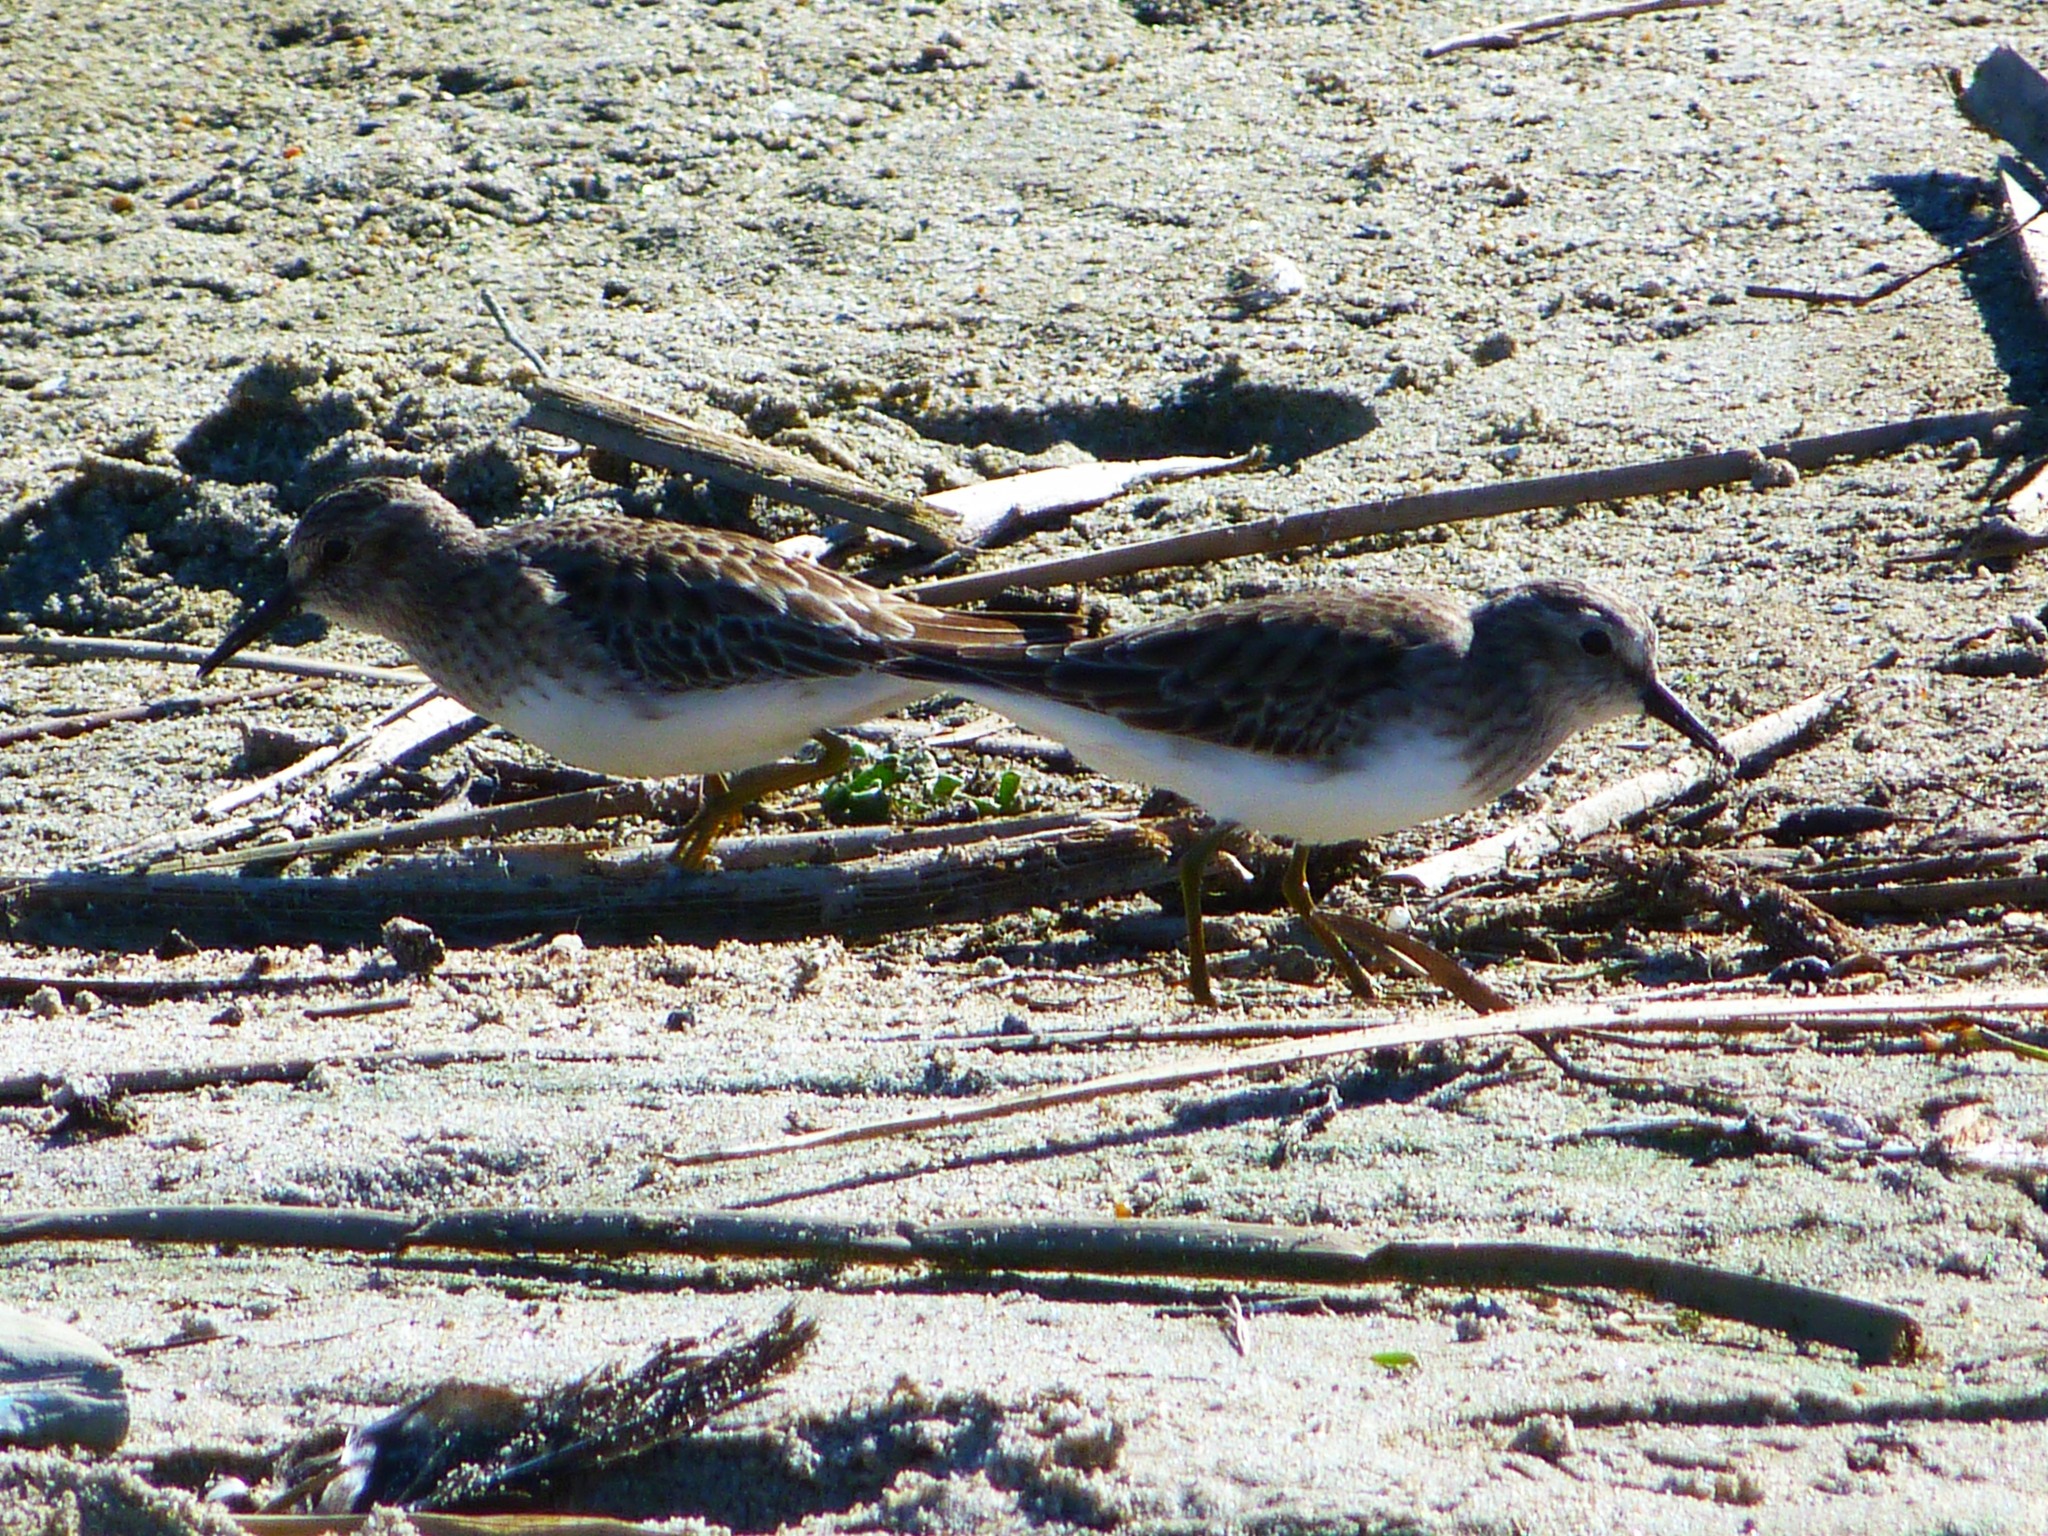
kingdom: Animalia
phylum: Chordata
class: Aves
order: Charadriiformes
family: Scolopacidae
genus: Calidris
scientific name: Calidris minutilla
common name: Least sandpiper
